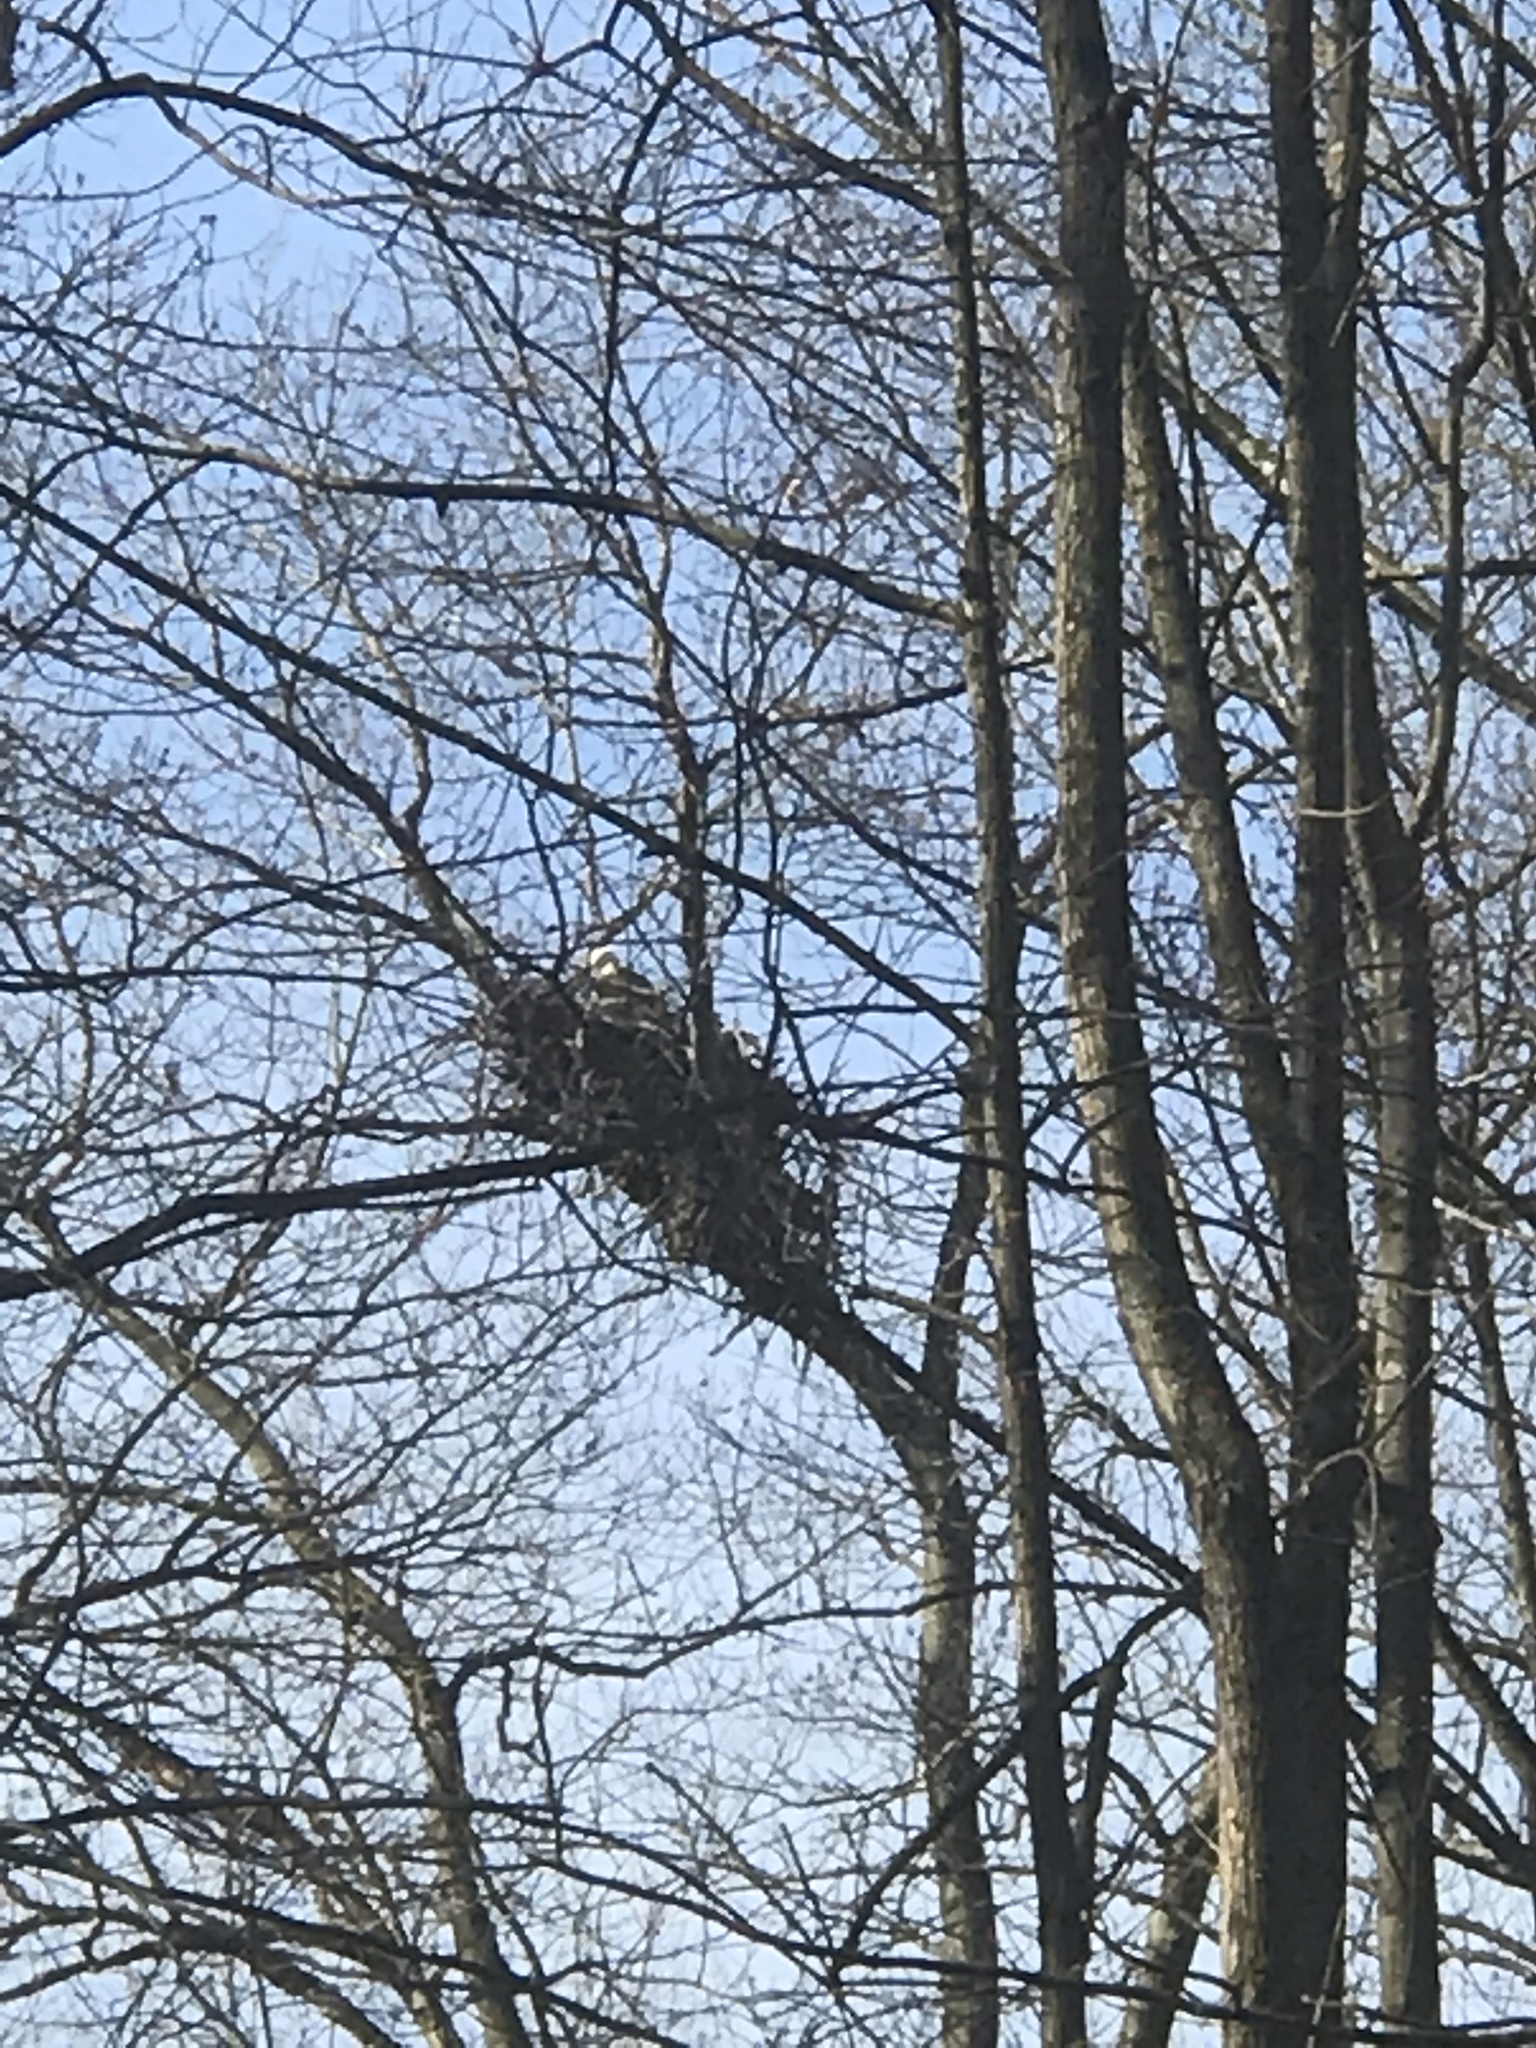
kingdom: Animalia
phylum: Chordata
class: Aves
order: Accipitriformes
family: Accipitridae
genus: Haliaeetus
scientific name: Haliaeetus leucocephalus
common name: Bald eagle
